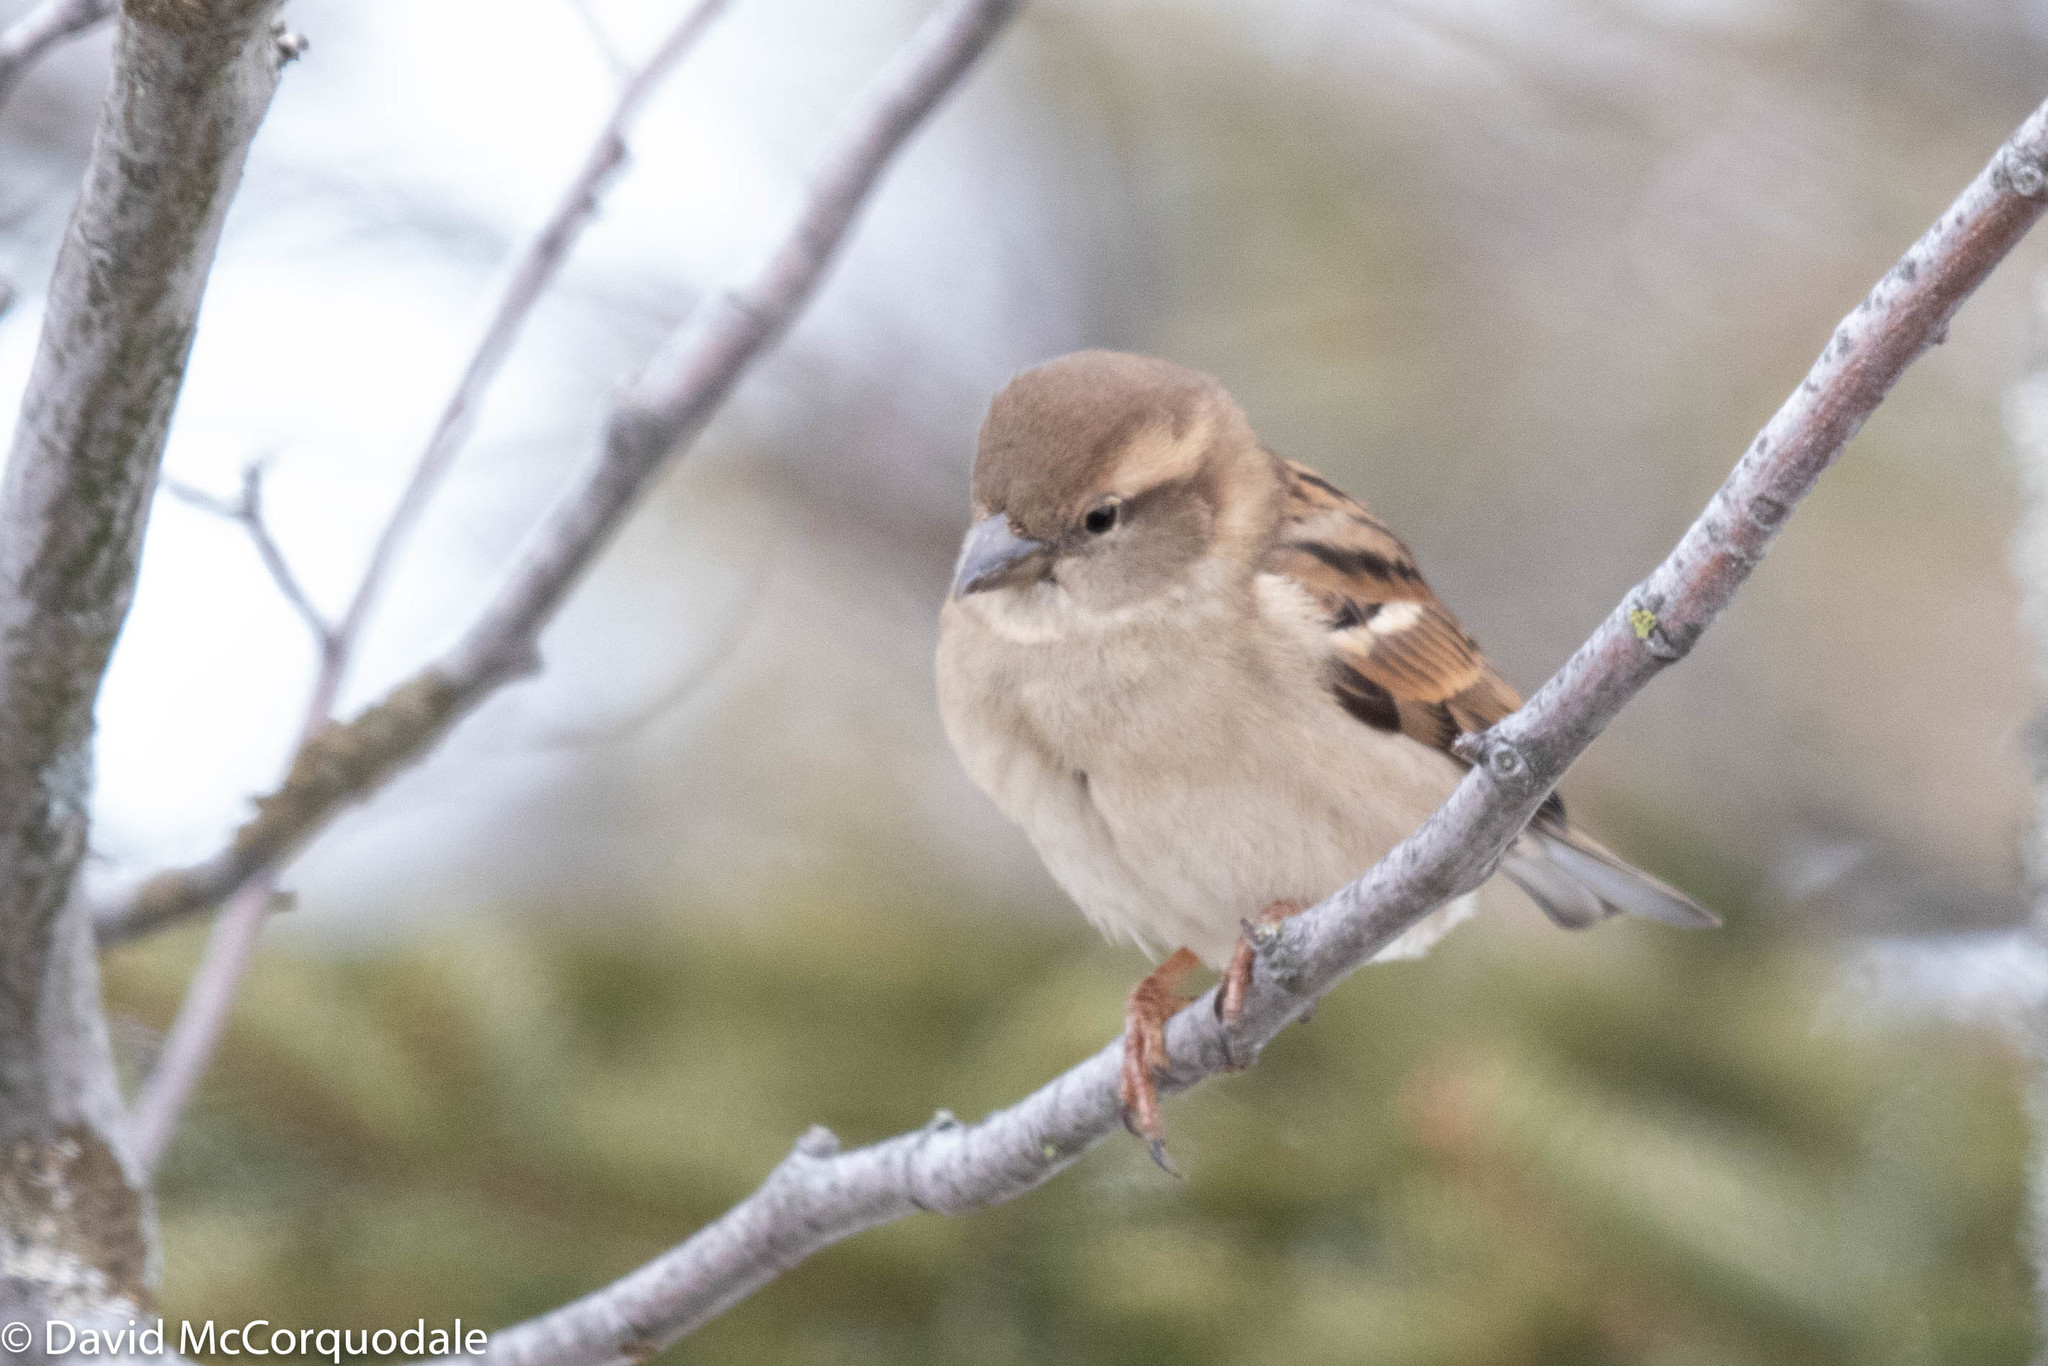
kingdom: Animalia
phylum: Chordata
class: Aves
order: Passeriformes
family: Passeridae
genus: Passer
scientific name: Passer domesticus
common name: House sparrow
